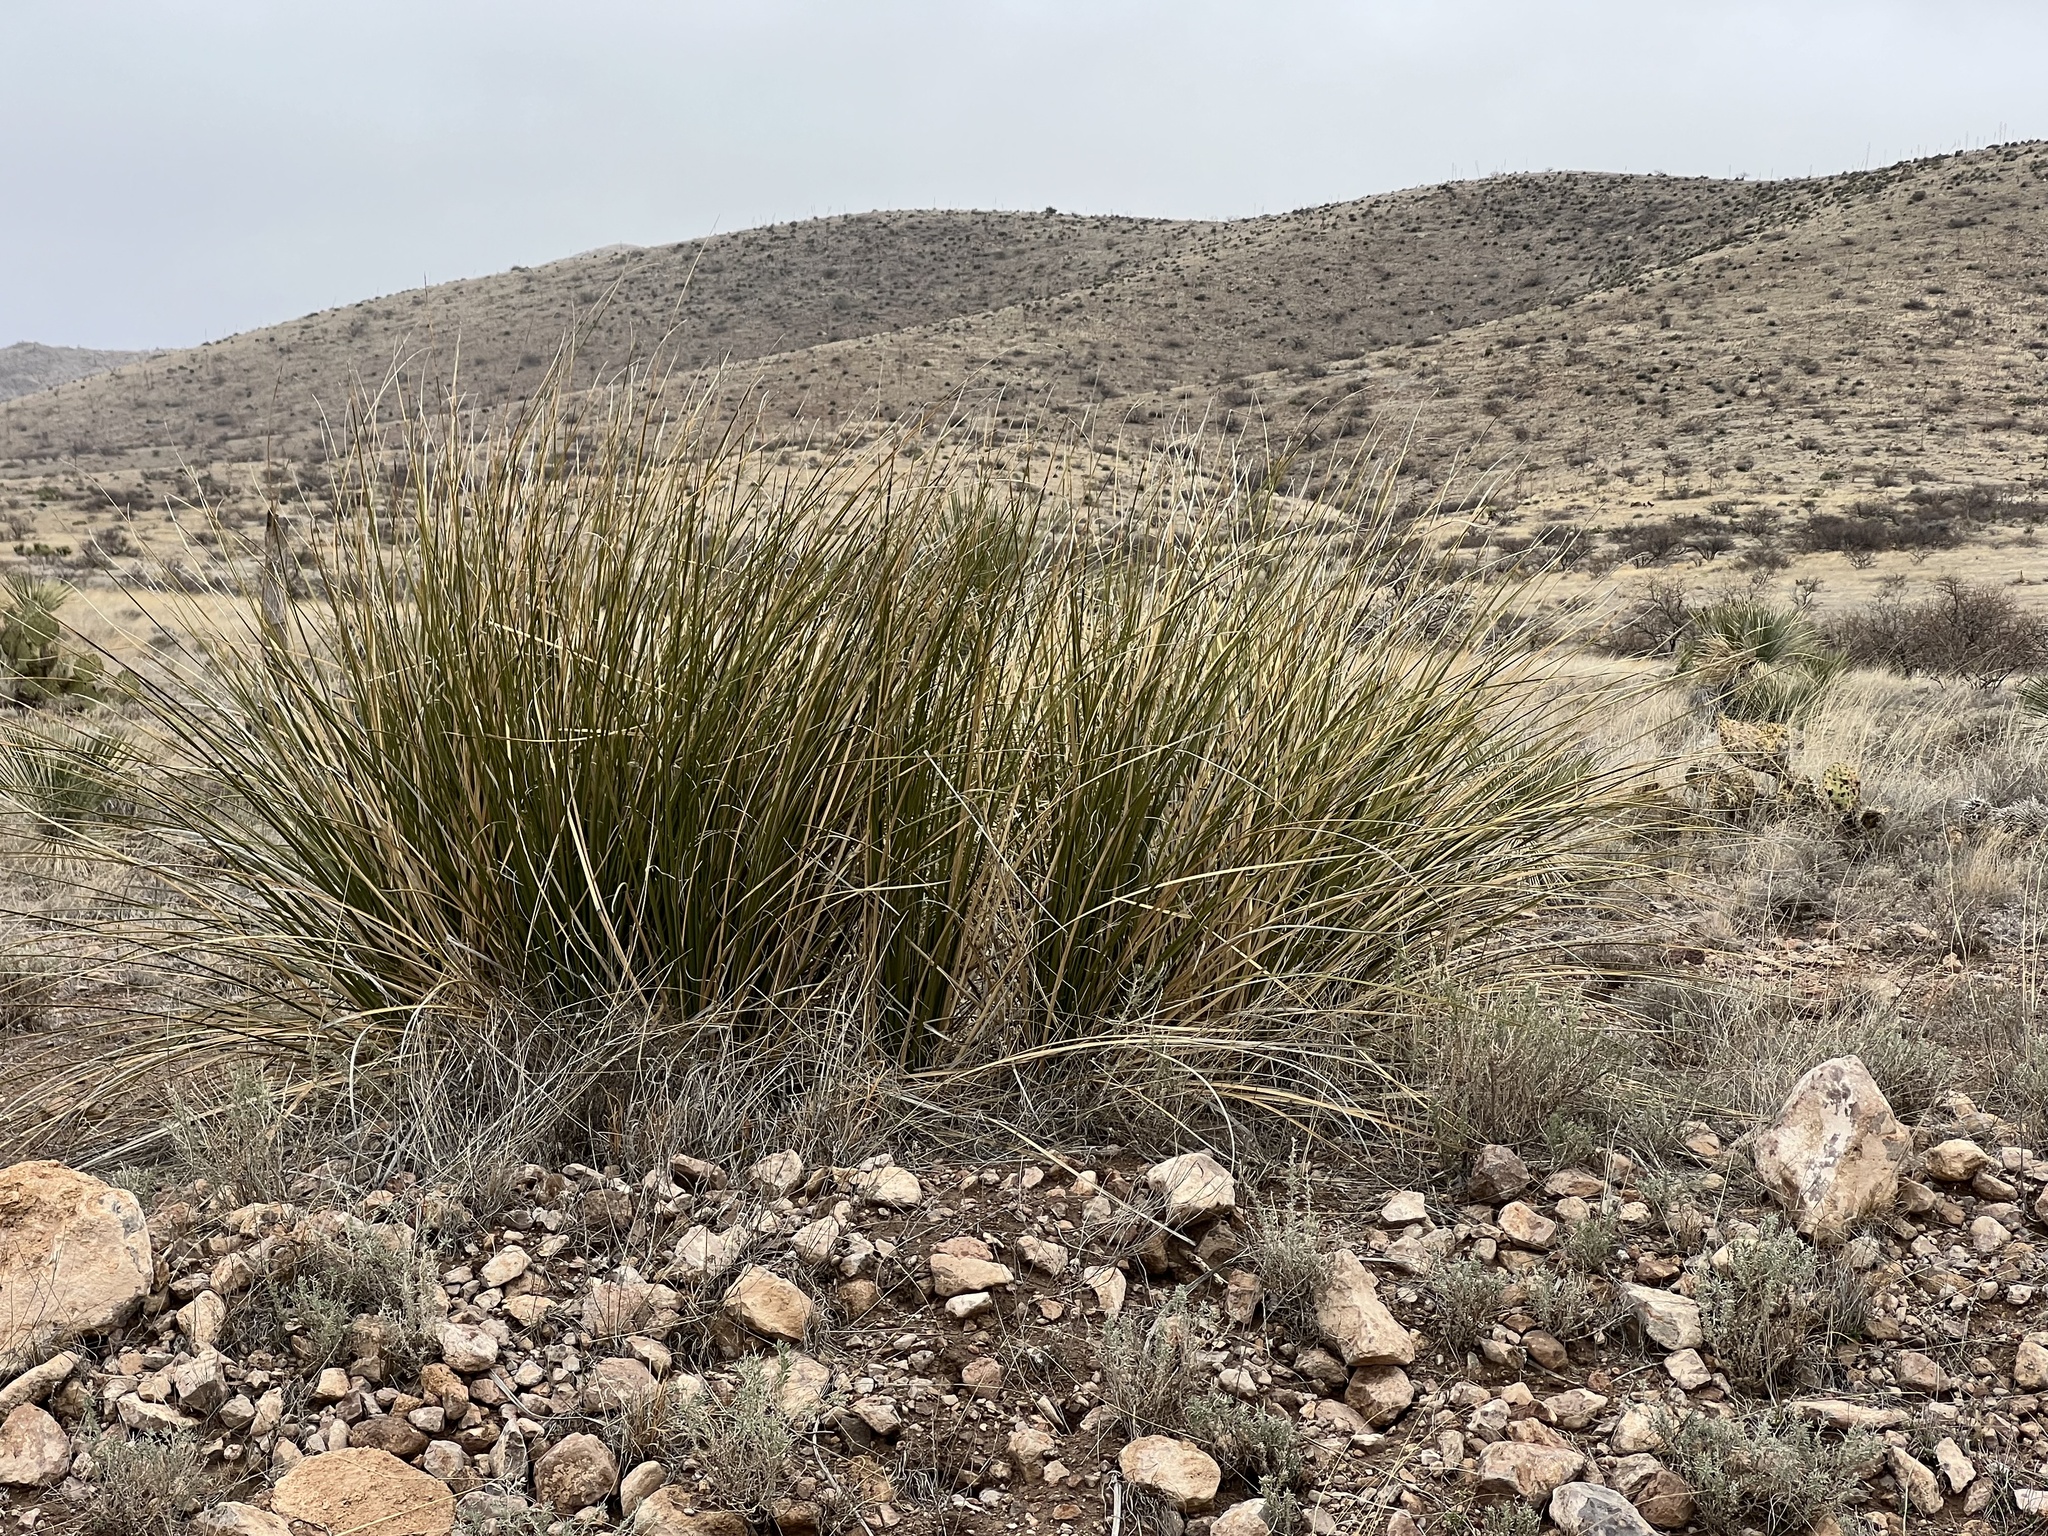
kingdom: Plantae
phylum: Tracheophyta
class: Liliopsida
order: Asparagales
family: Asparagaceae
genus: Nolina
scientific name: Nolina microcarpa
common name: Bear-grass
